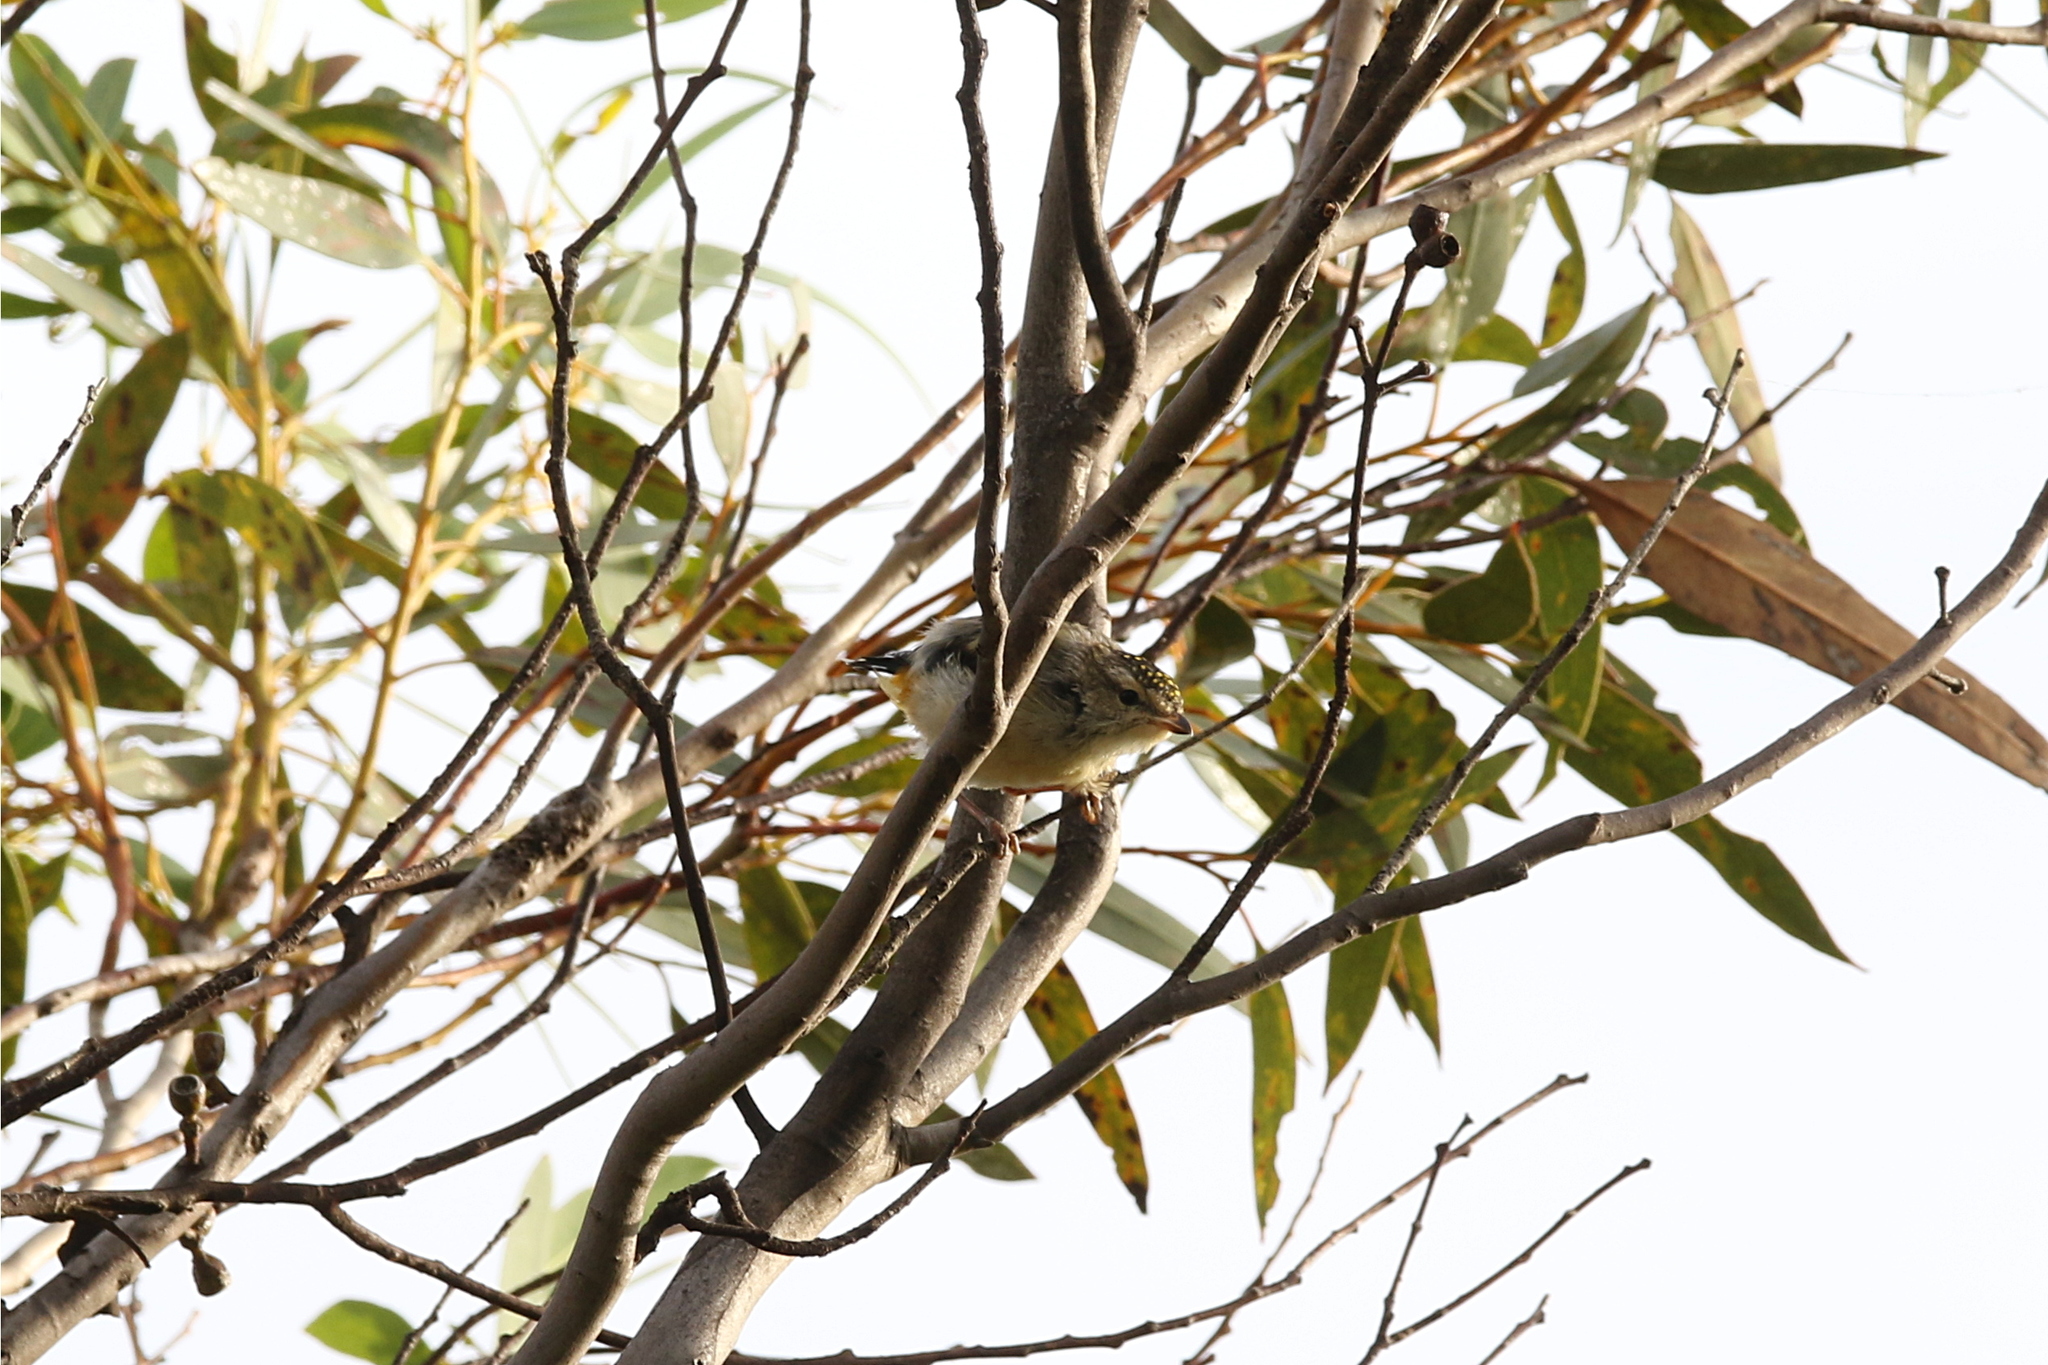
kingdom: Animalia
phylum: Chordata
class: Aves
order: Passeriformes
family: Pardalotidae
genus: Pardalotus
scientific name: Pardalotus punctatus
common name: Spotted pardalote
